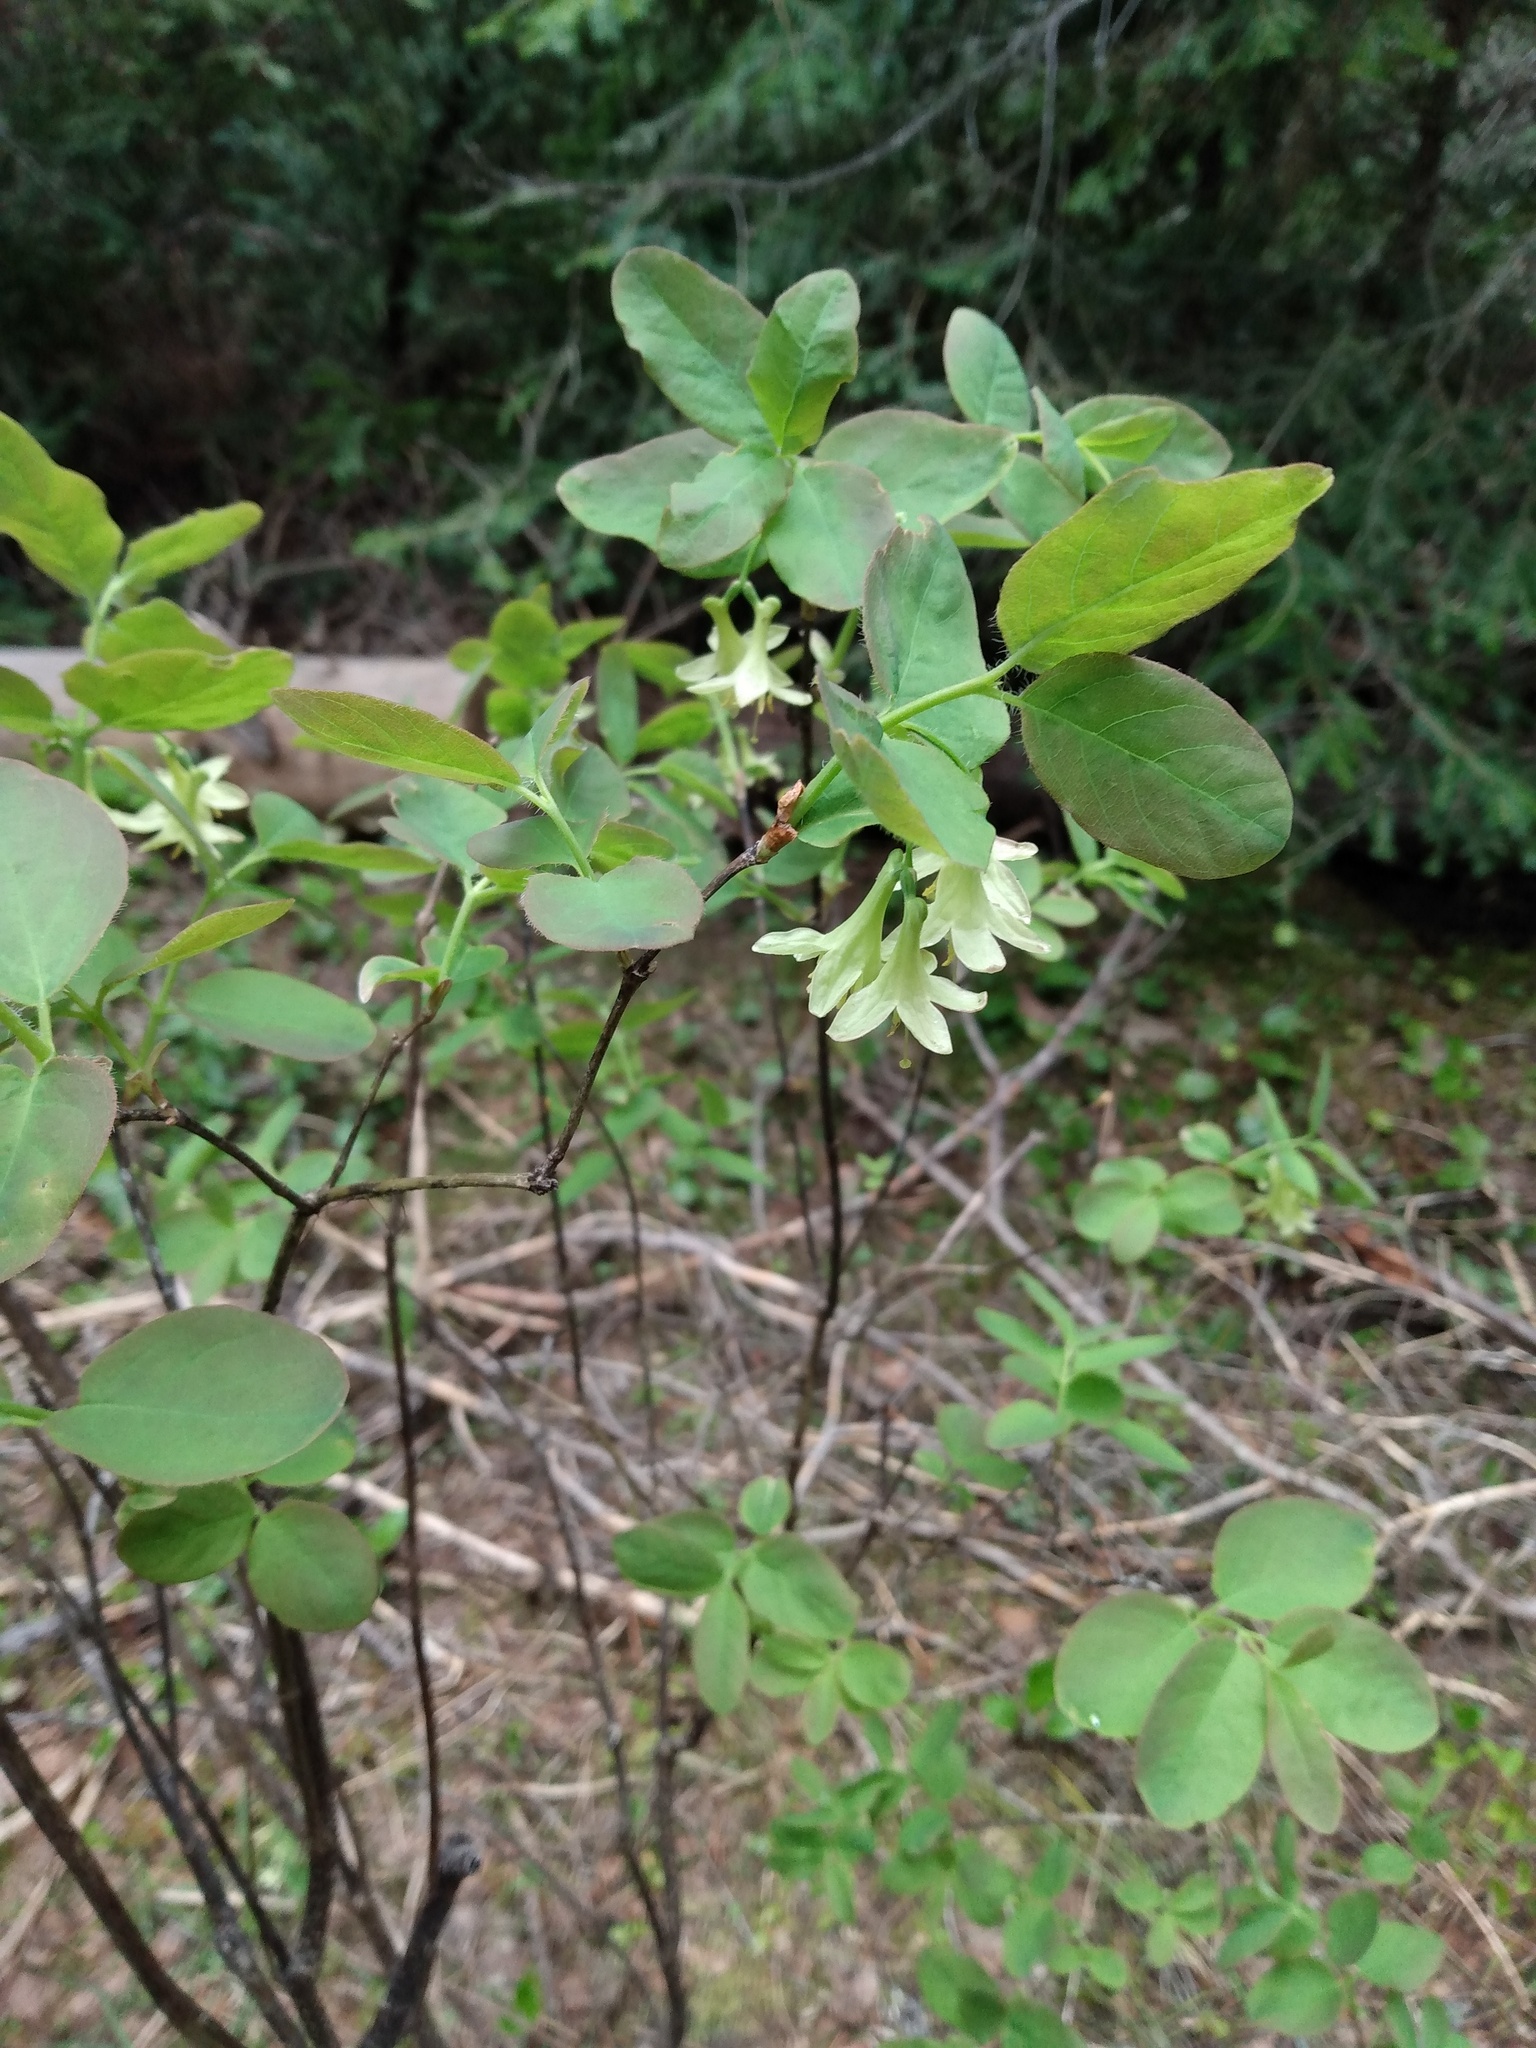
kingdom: Plantae
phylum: Tracheophyta
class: Magnoliopsida
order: Dipsacales
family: Caprifoliaceae
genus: Lonicera
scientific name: Lonicera utahensis
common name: Utah honeysuckle
